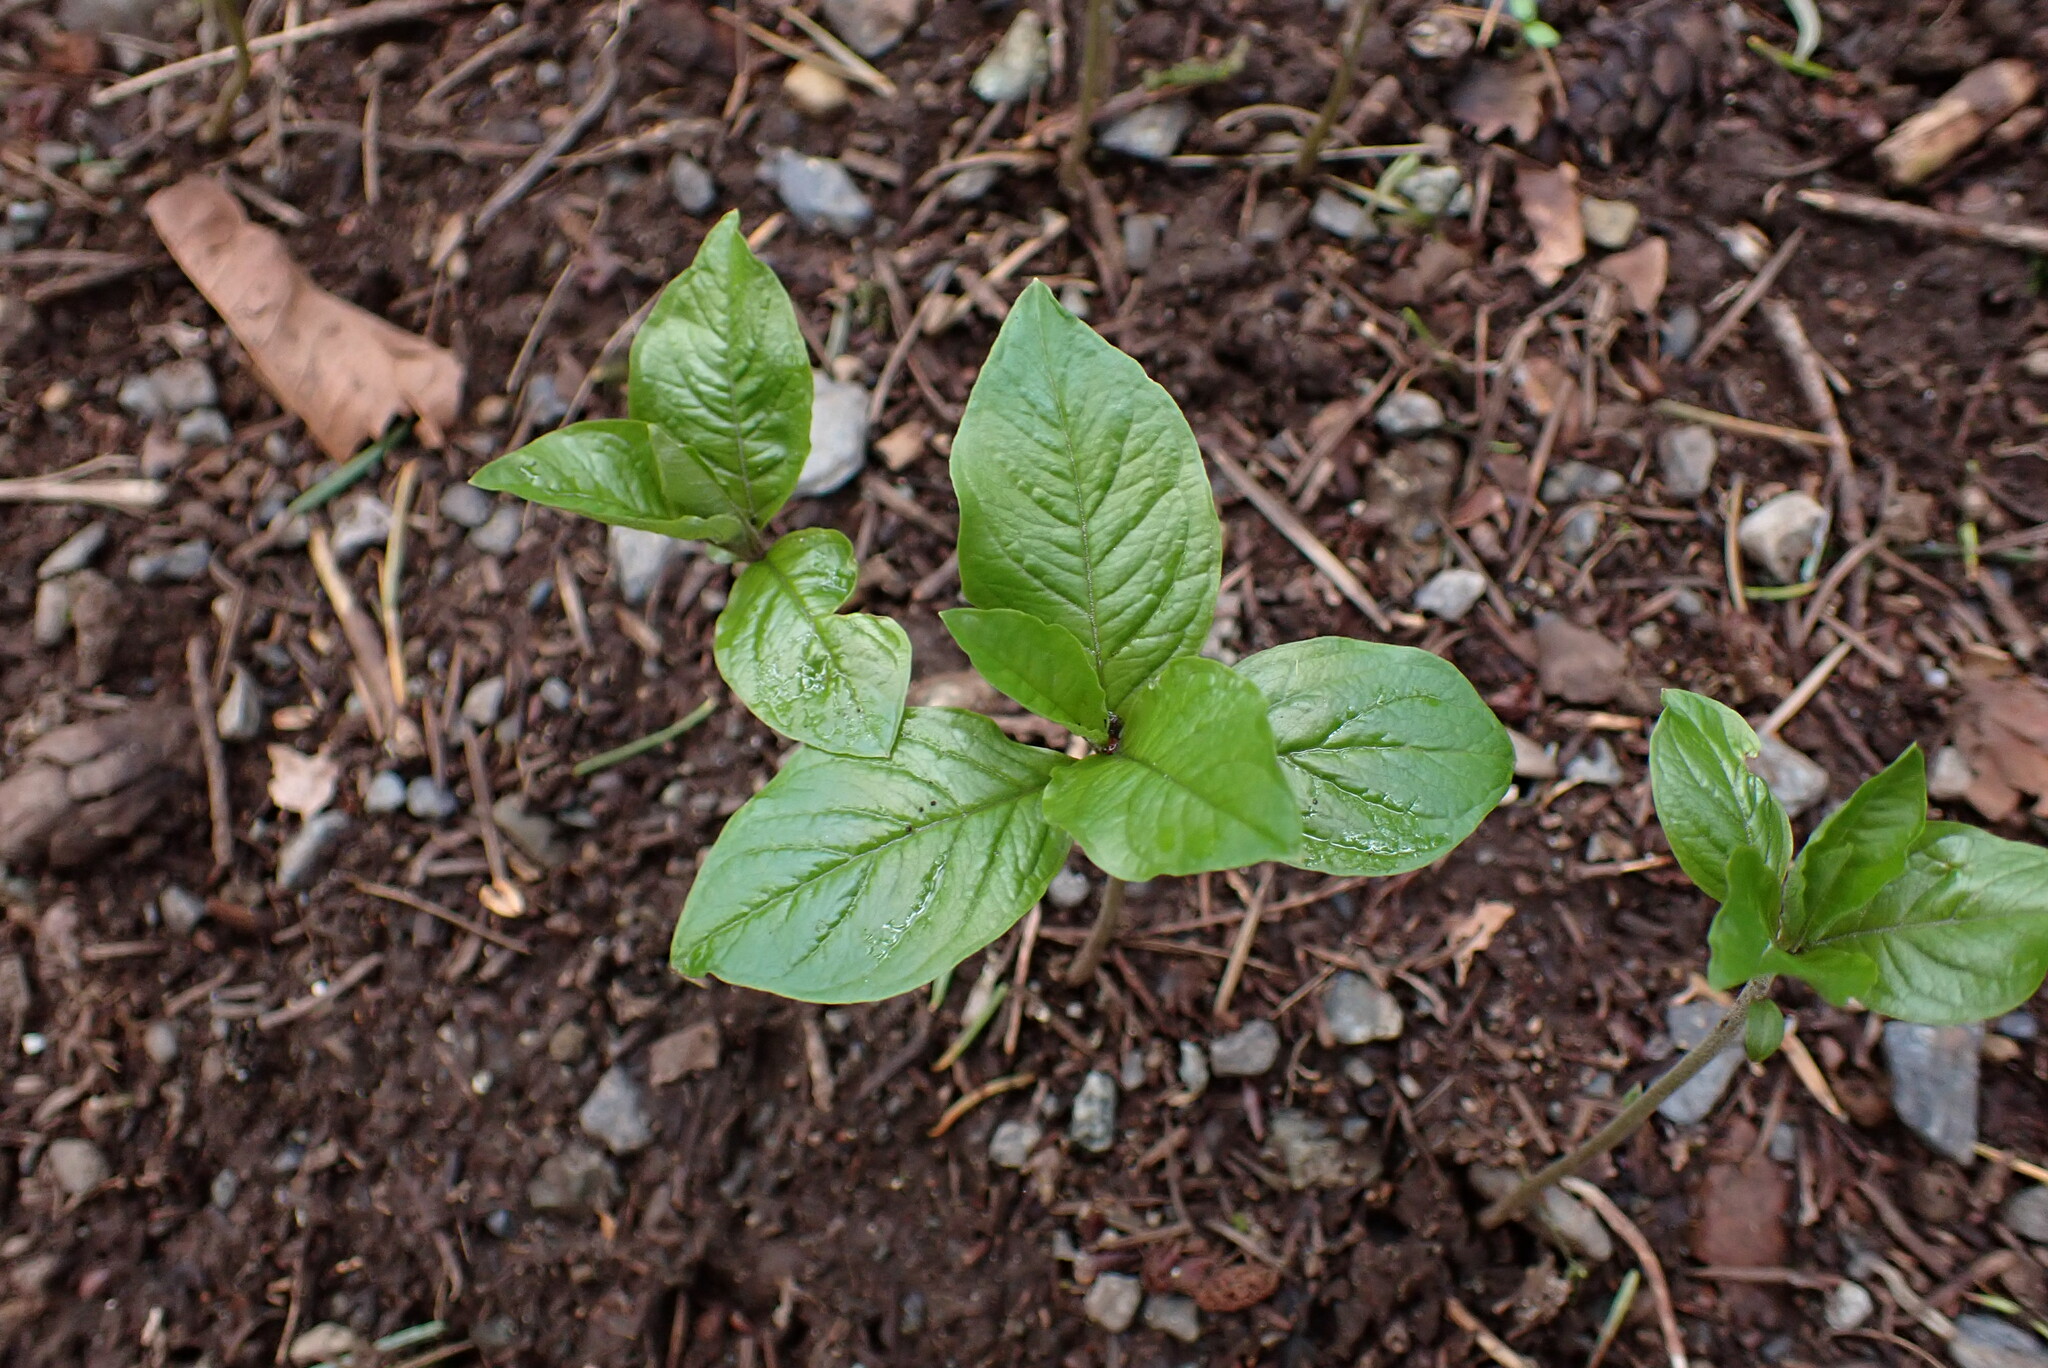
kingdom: Plantae
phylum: Tracheophyta
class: Magnoliopsida
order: Ericales
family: Primulaceae
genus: Lysimachia
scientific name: Lysimachia latifolia
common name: Pacific starflower
